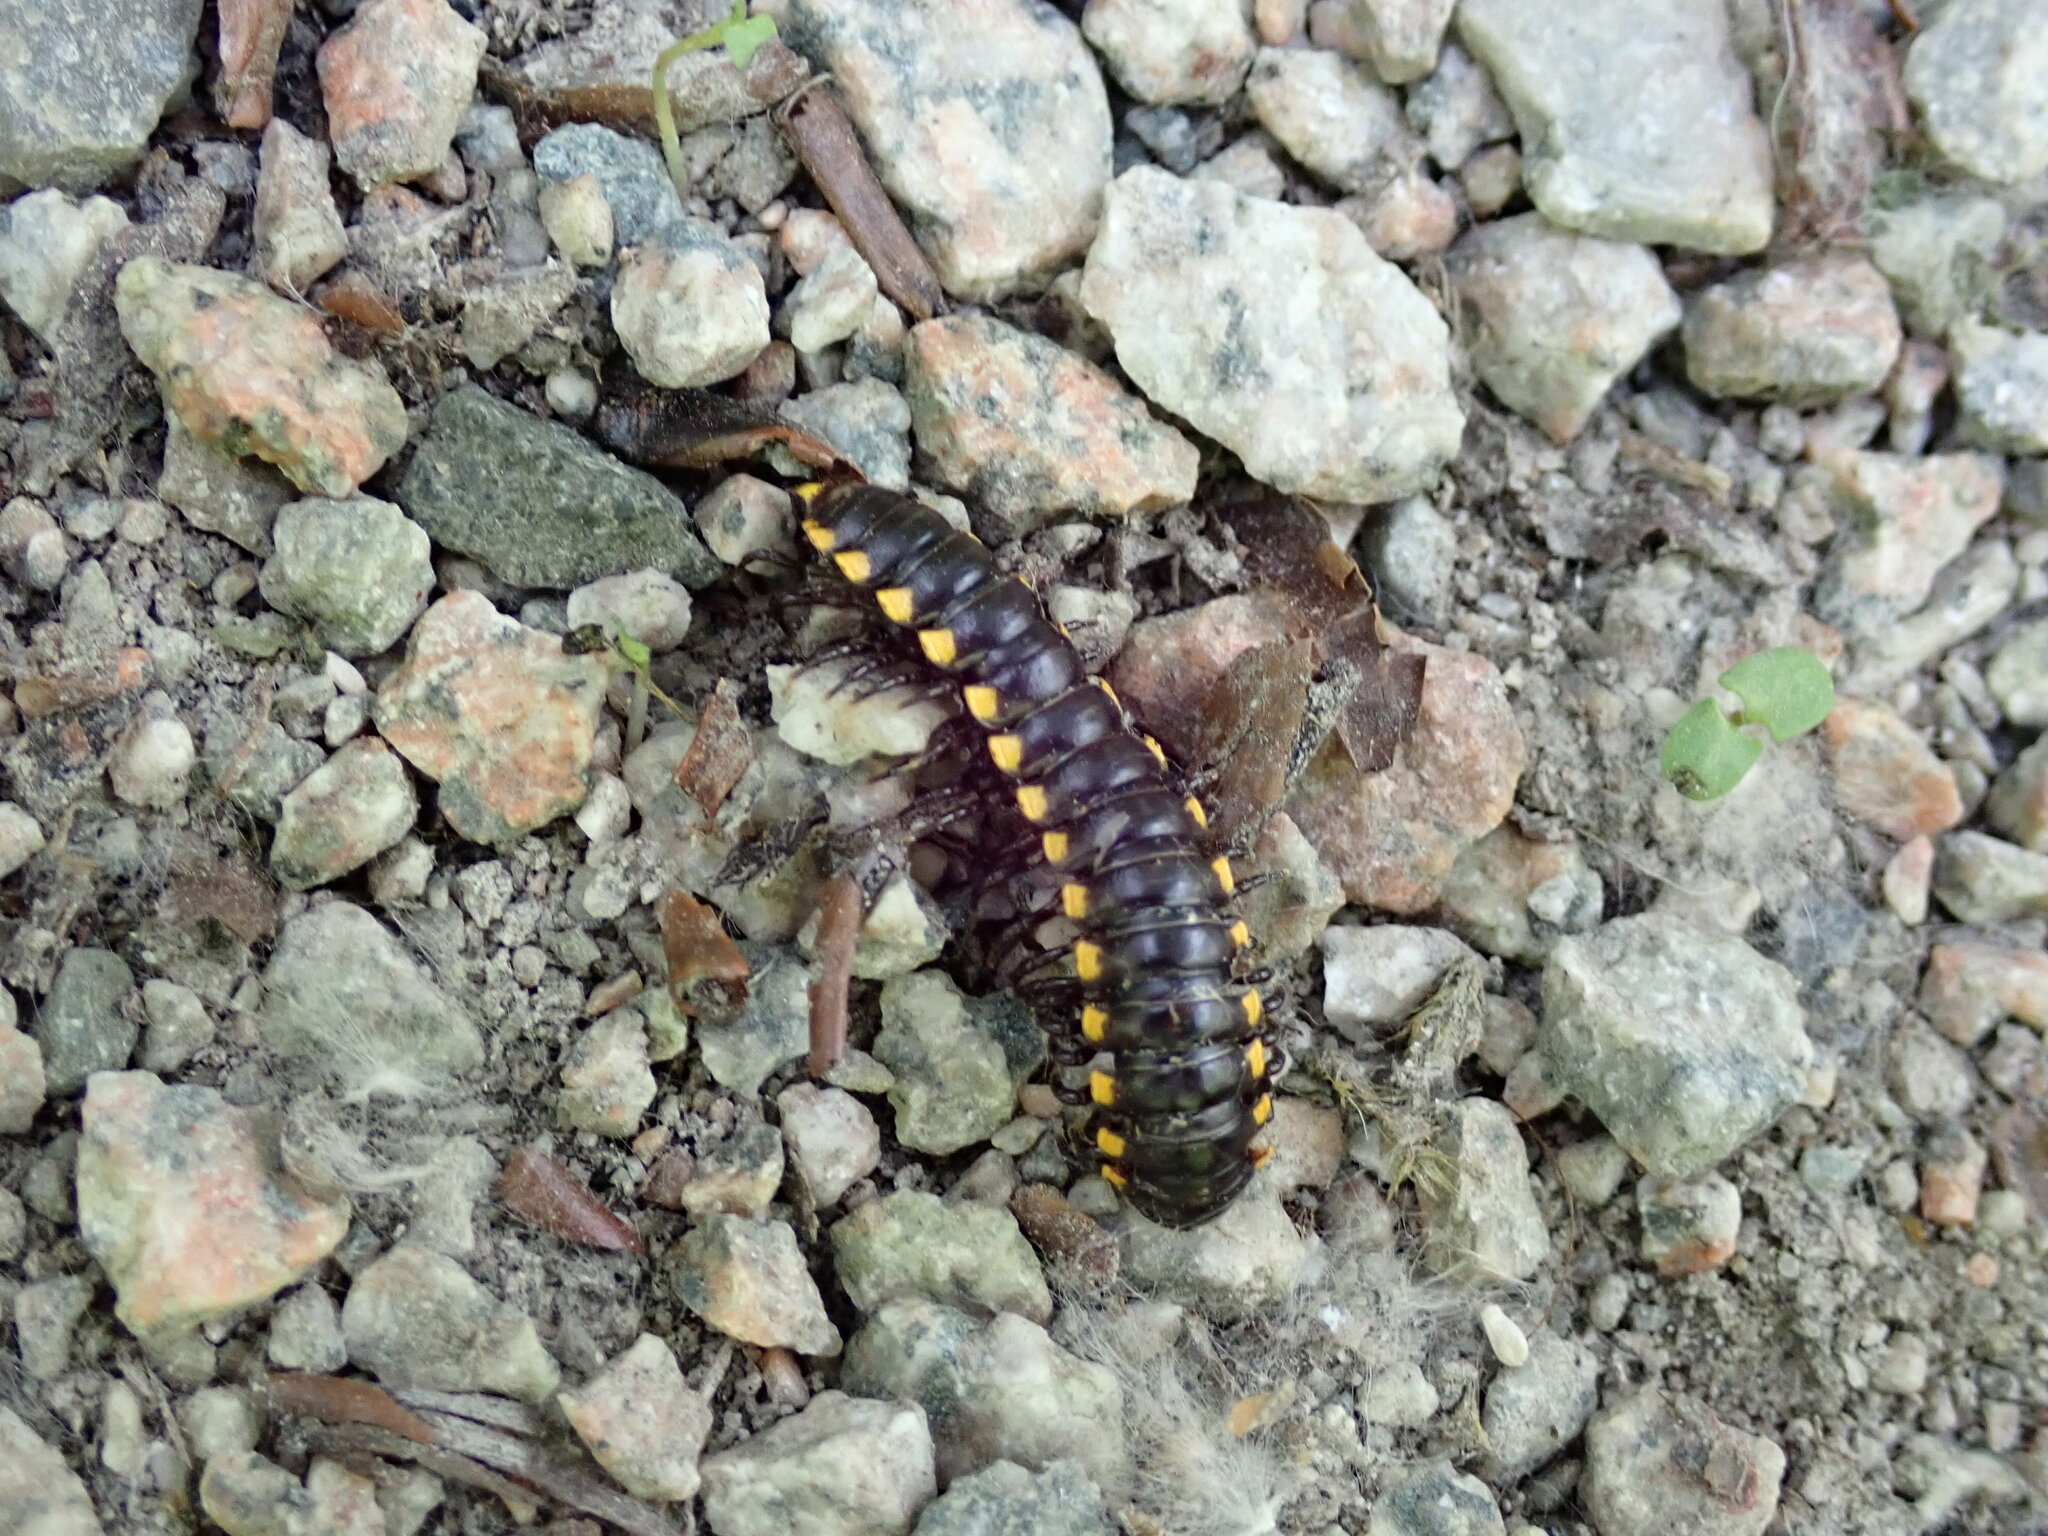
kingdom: Animalia
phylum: Arthropoda
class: Diplopoda
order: Polydesmida
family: Xystodesmidae
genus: Harpaphe
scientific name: Harpaphe haydeniana
